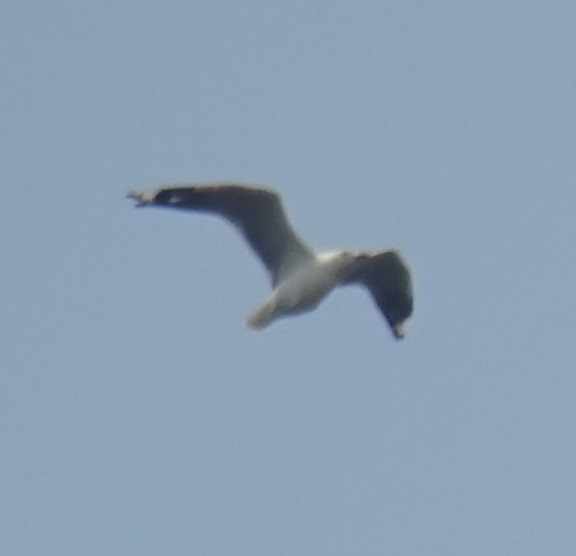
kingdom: Animalia
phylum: Chordata
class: Aves
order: Charadriiformes
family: Laridae
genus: Chroicocephalus
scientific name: Chroicocephalus novaehollandiae
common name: Silver gull
